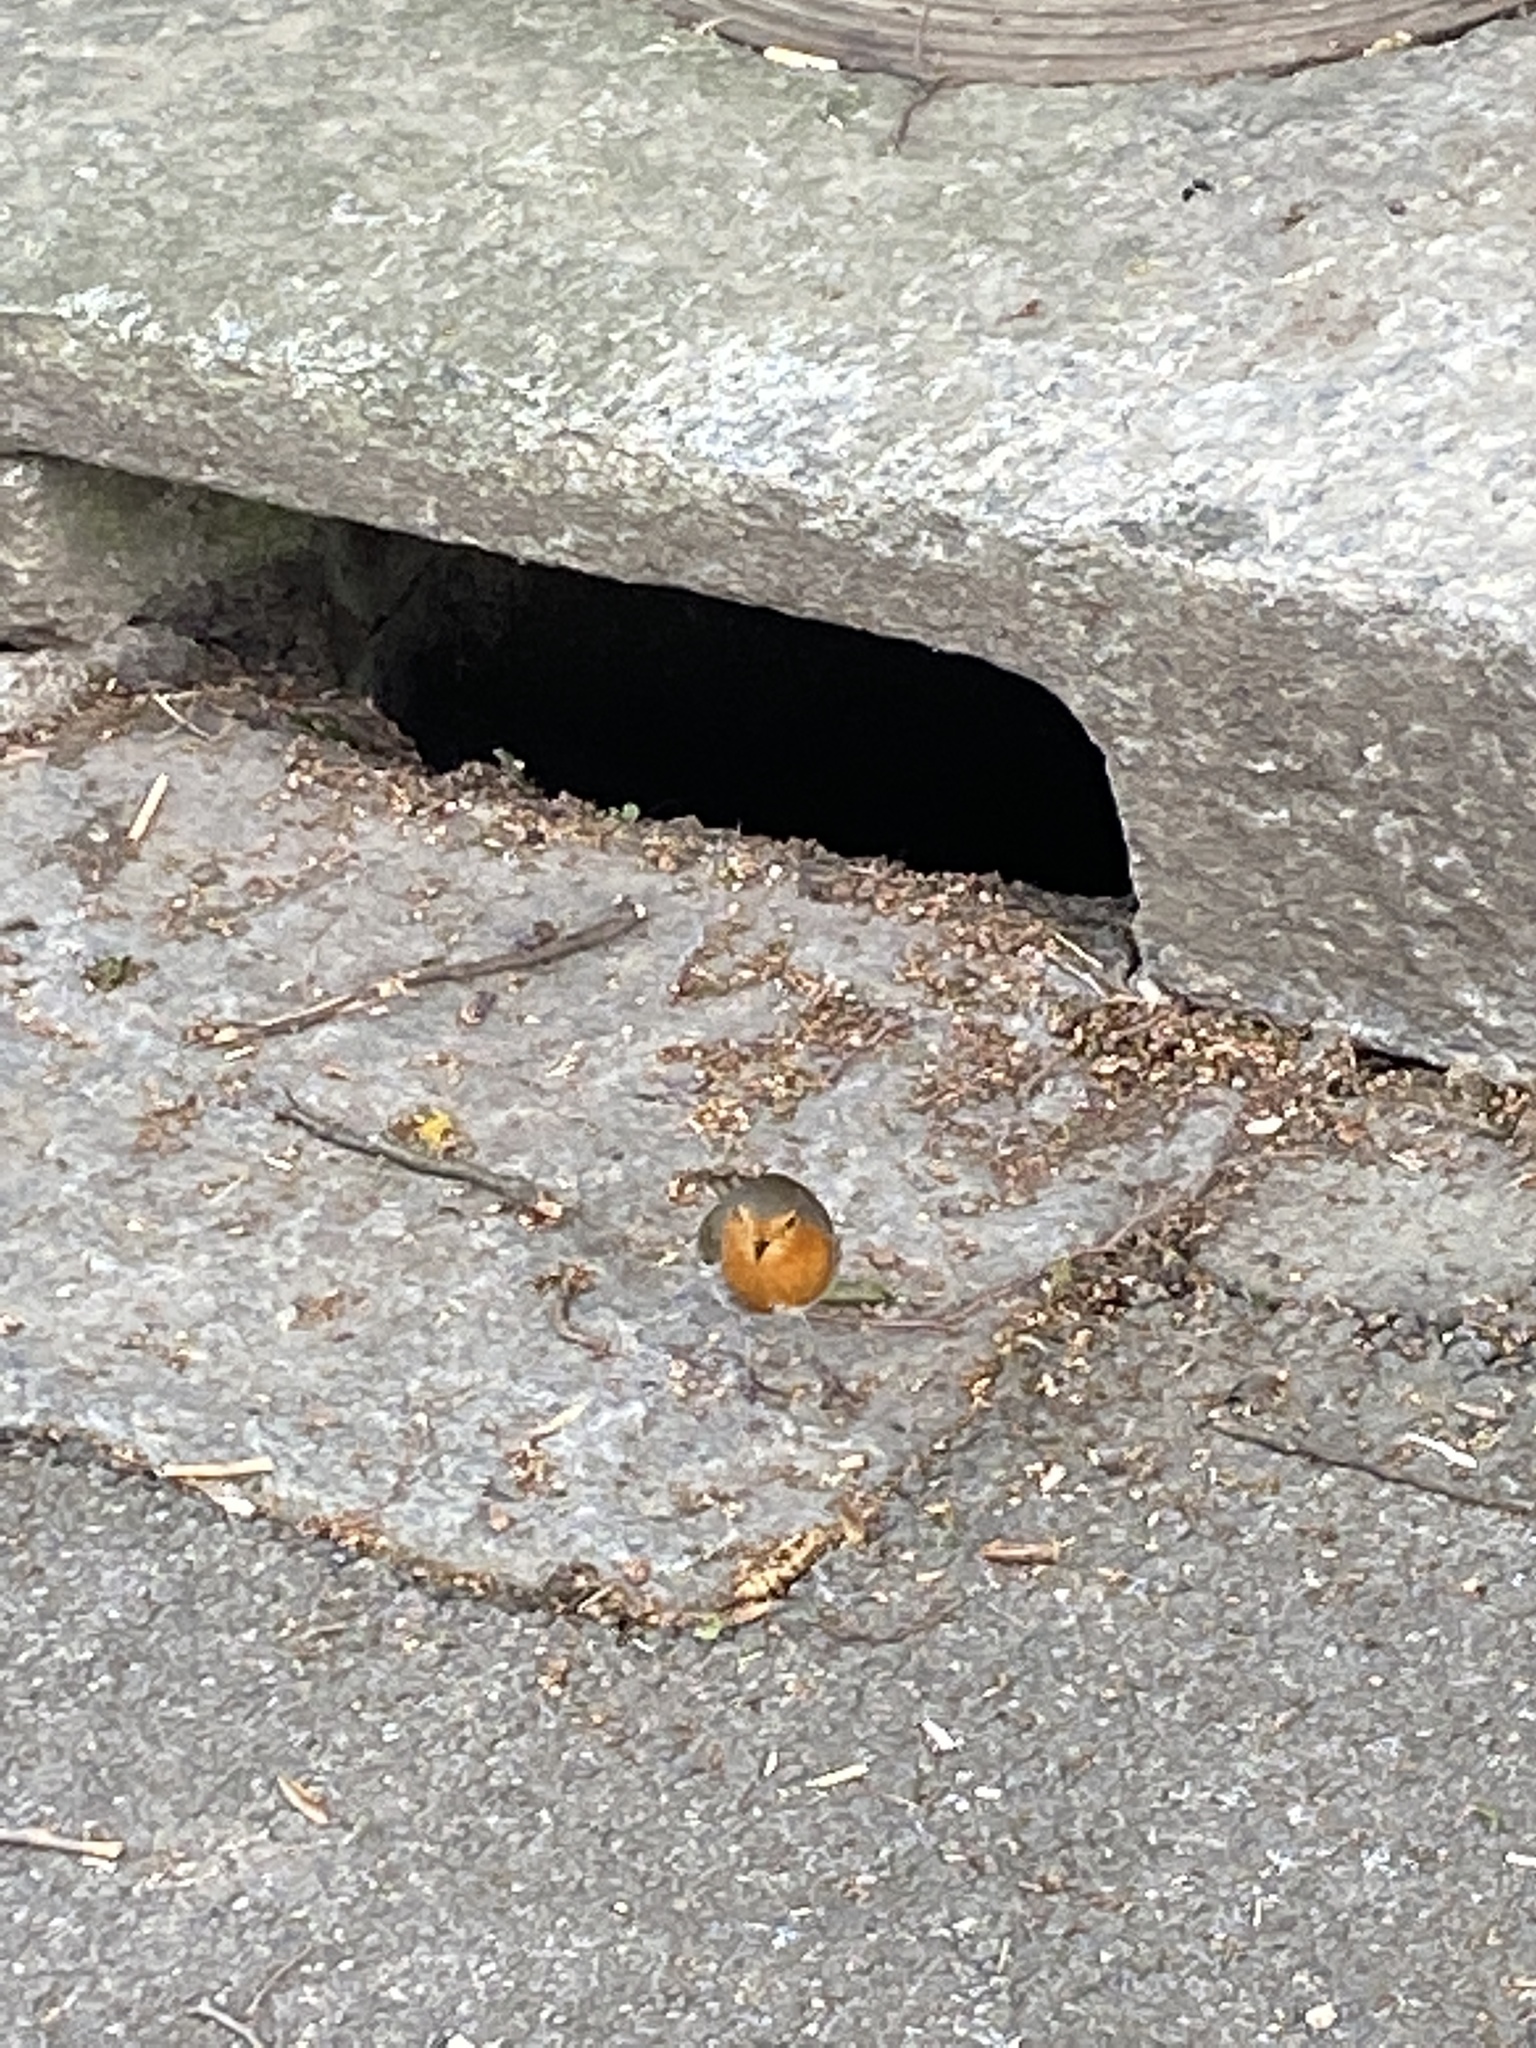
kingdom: Animalia
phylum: Chordata
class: Aves
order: Passeriformes
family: Muscicapidae
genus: Erithacus
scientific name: Erithacus rubecula
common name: European robin
